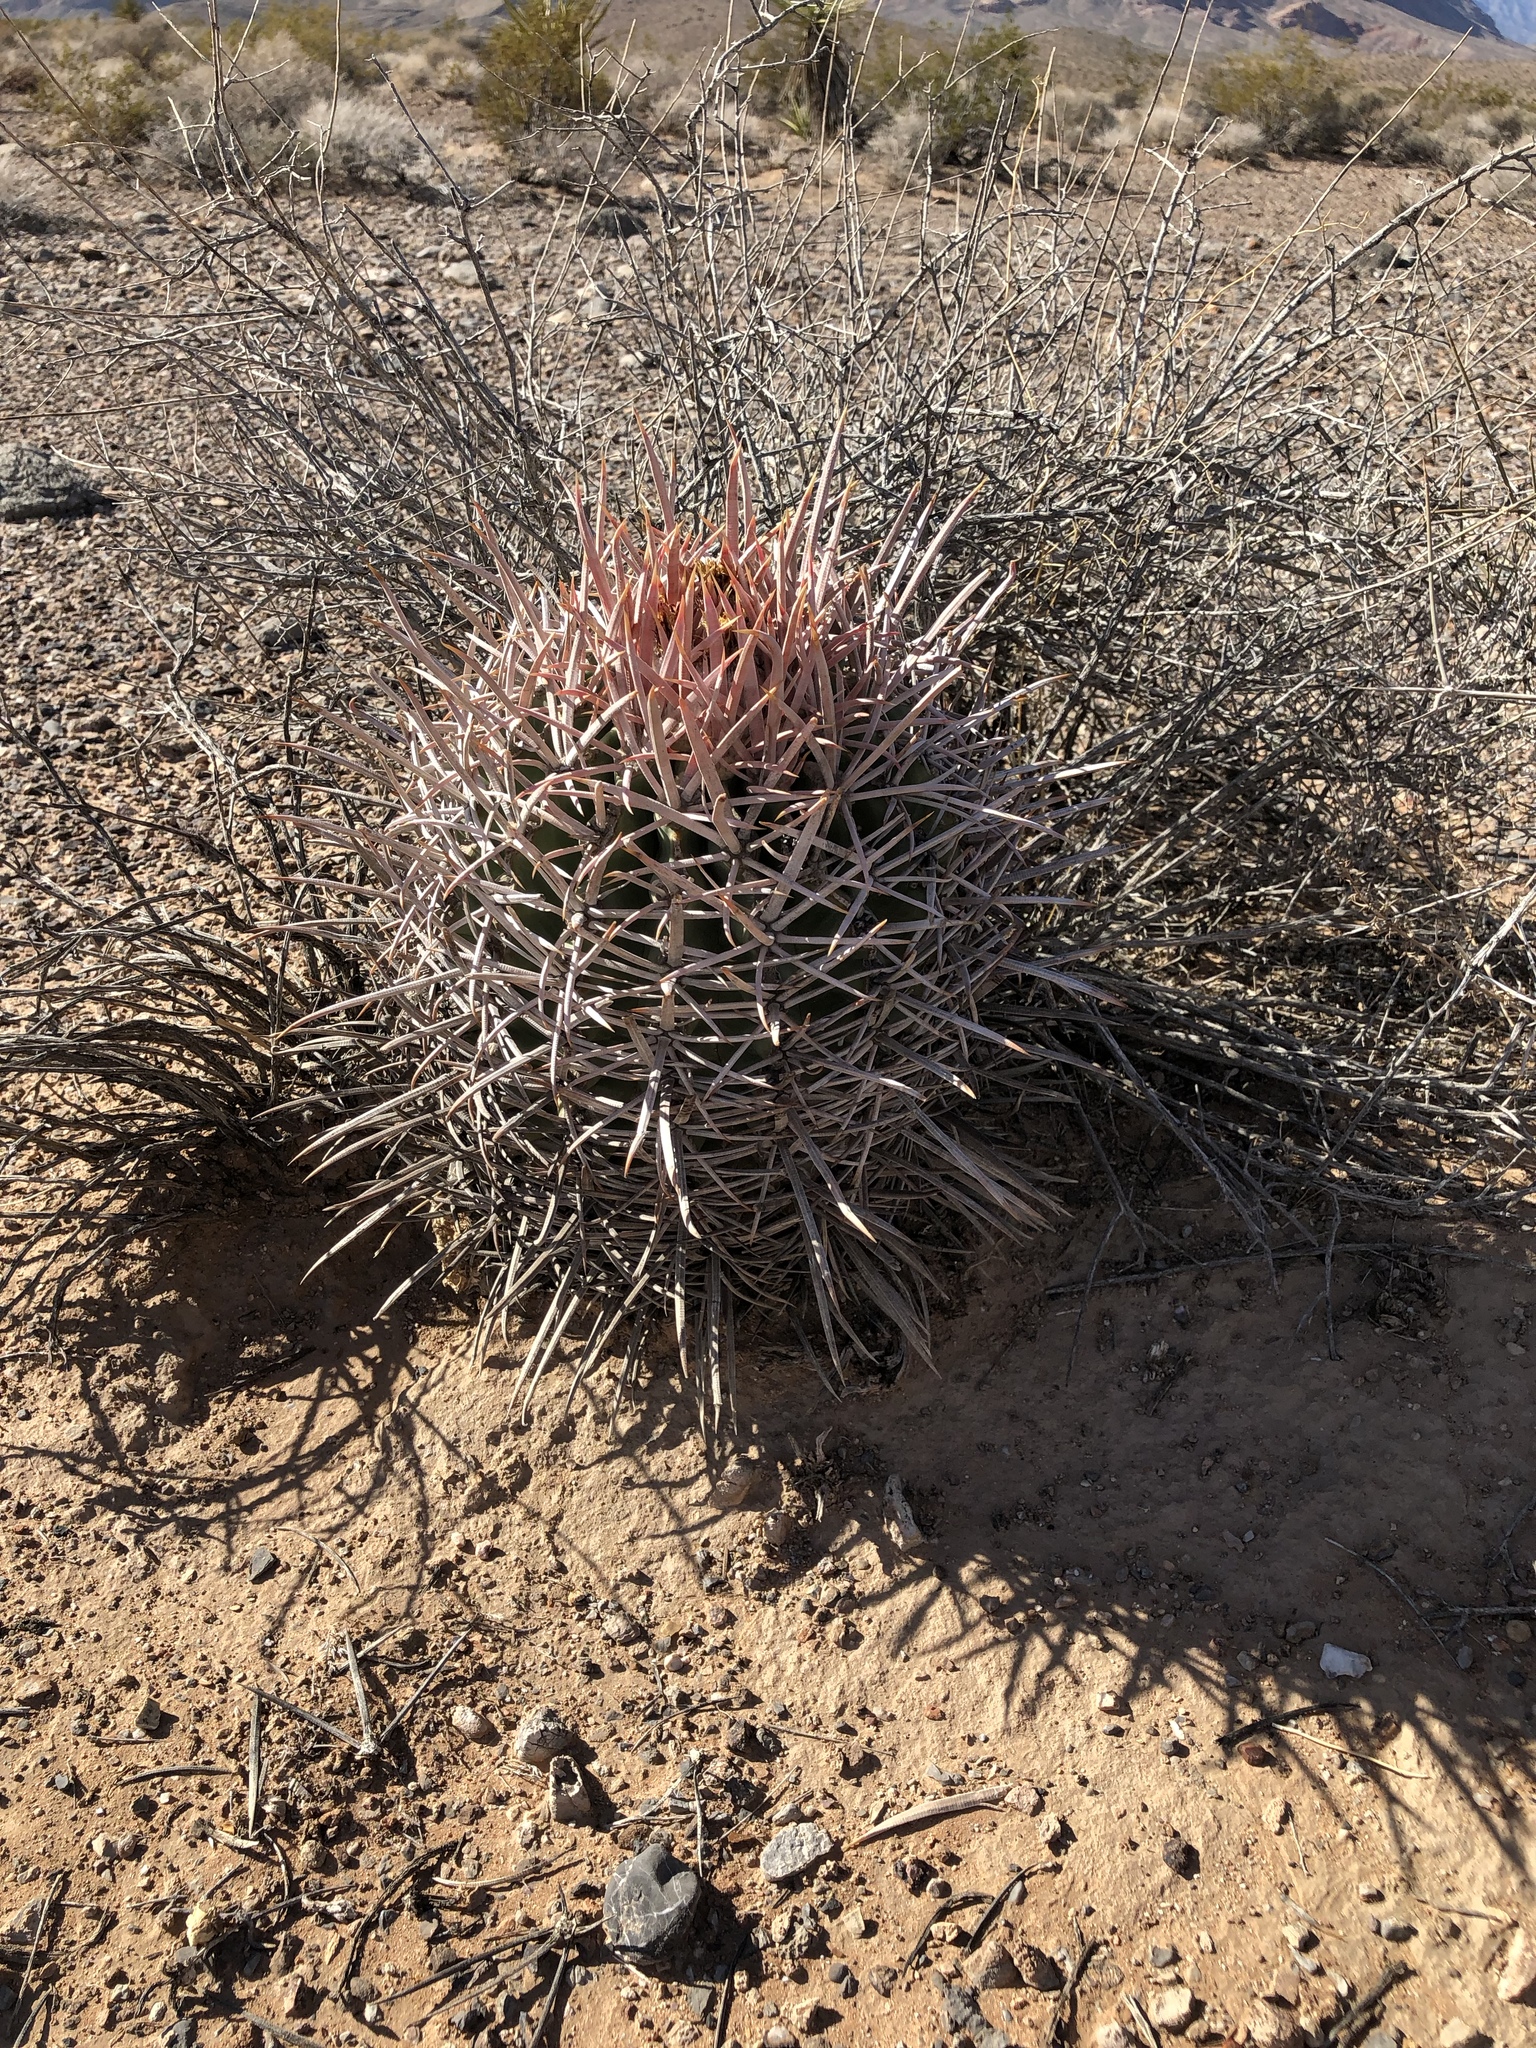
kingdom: Plantae
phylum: Tracheophyta
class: Magnoliopsida
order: Caryophyllales
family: Cactaceae
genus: Echinocactus
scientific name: Echinocactus polycephalus
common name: Cottontop cactus
